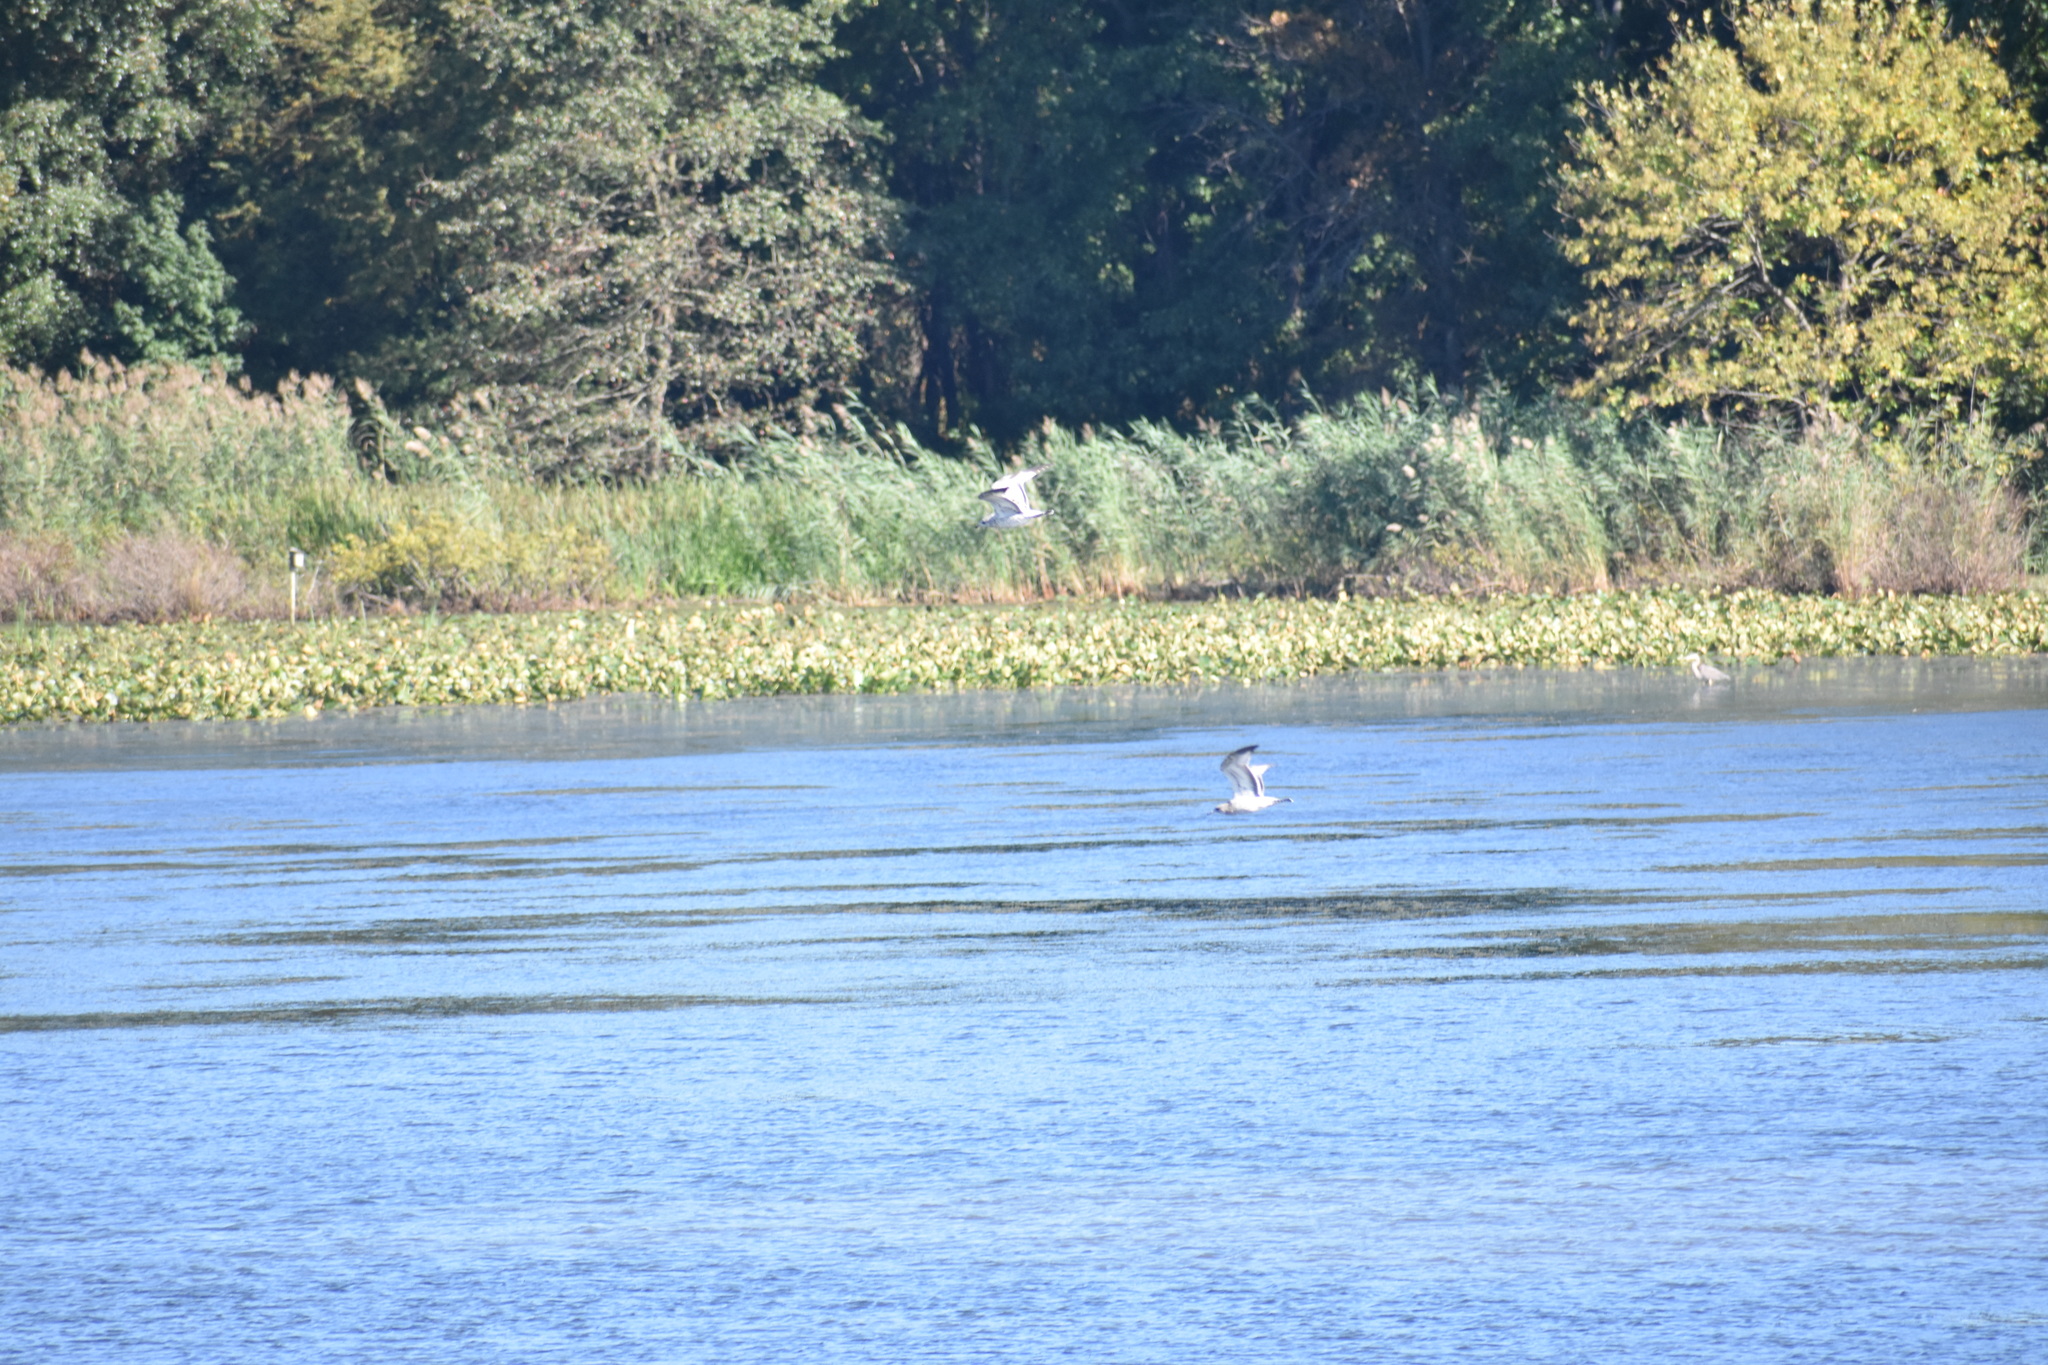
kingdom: Animalia
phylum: Chordata
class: Aves
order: Charadriiformes
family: Laridae
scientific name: Laridae
